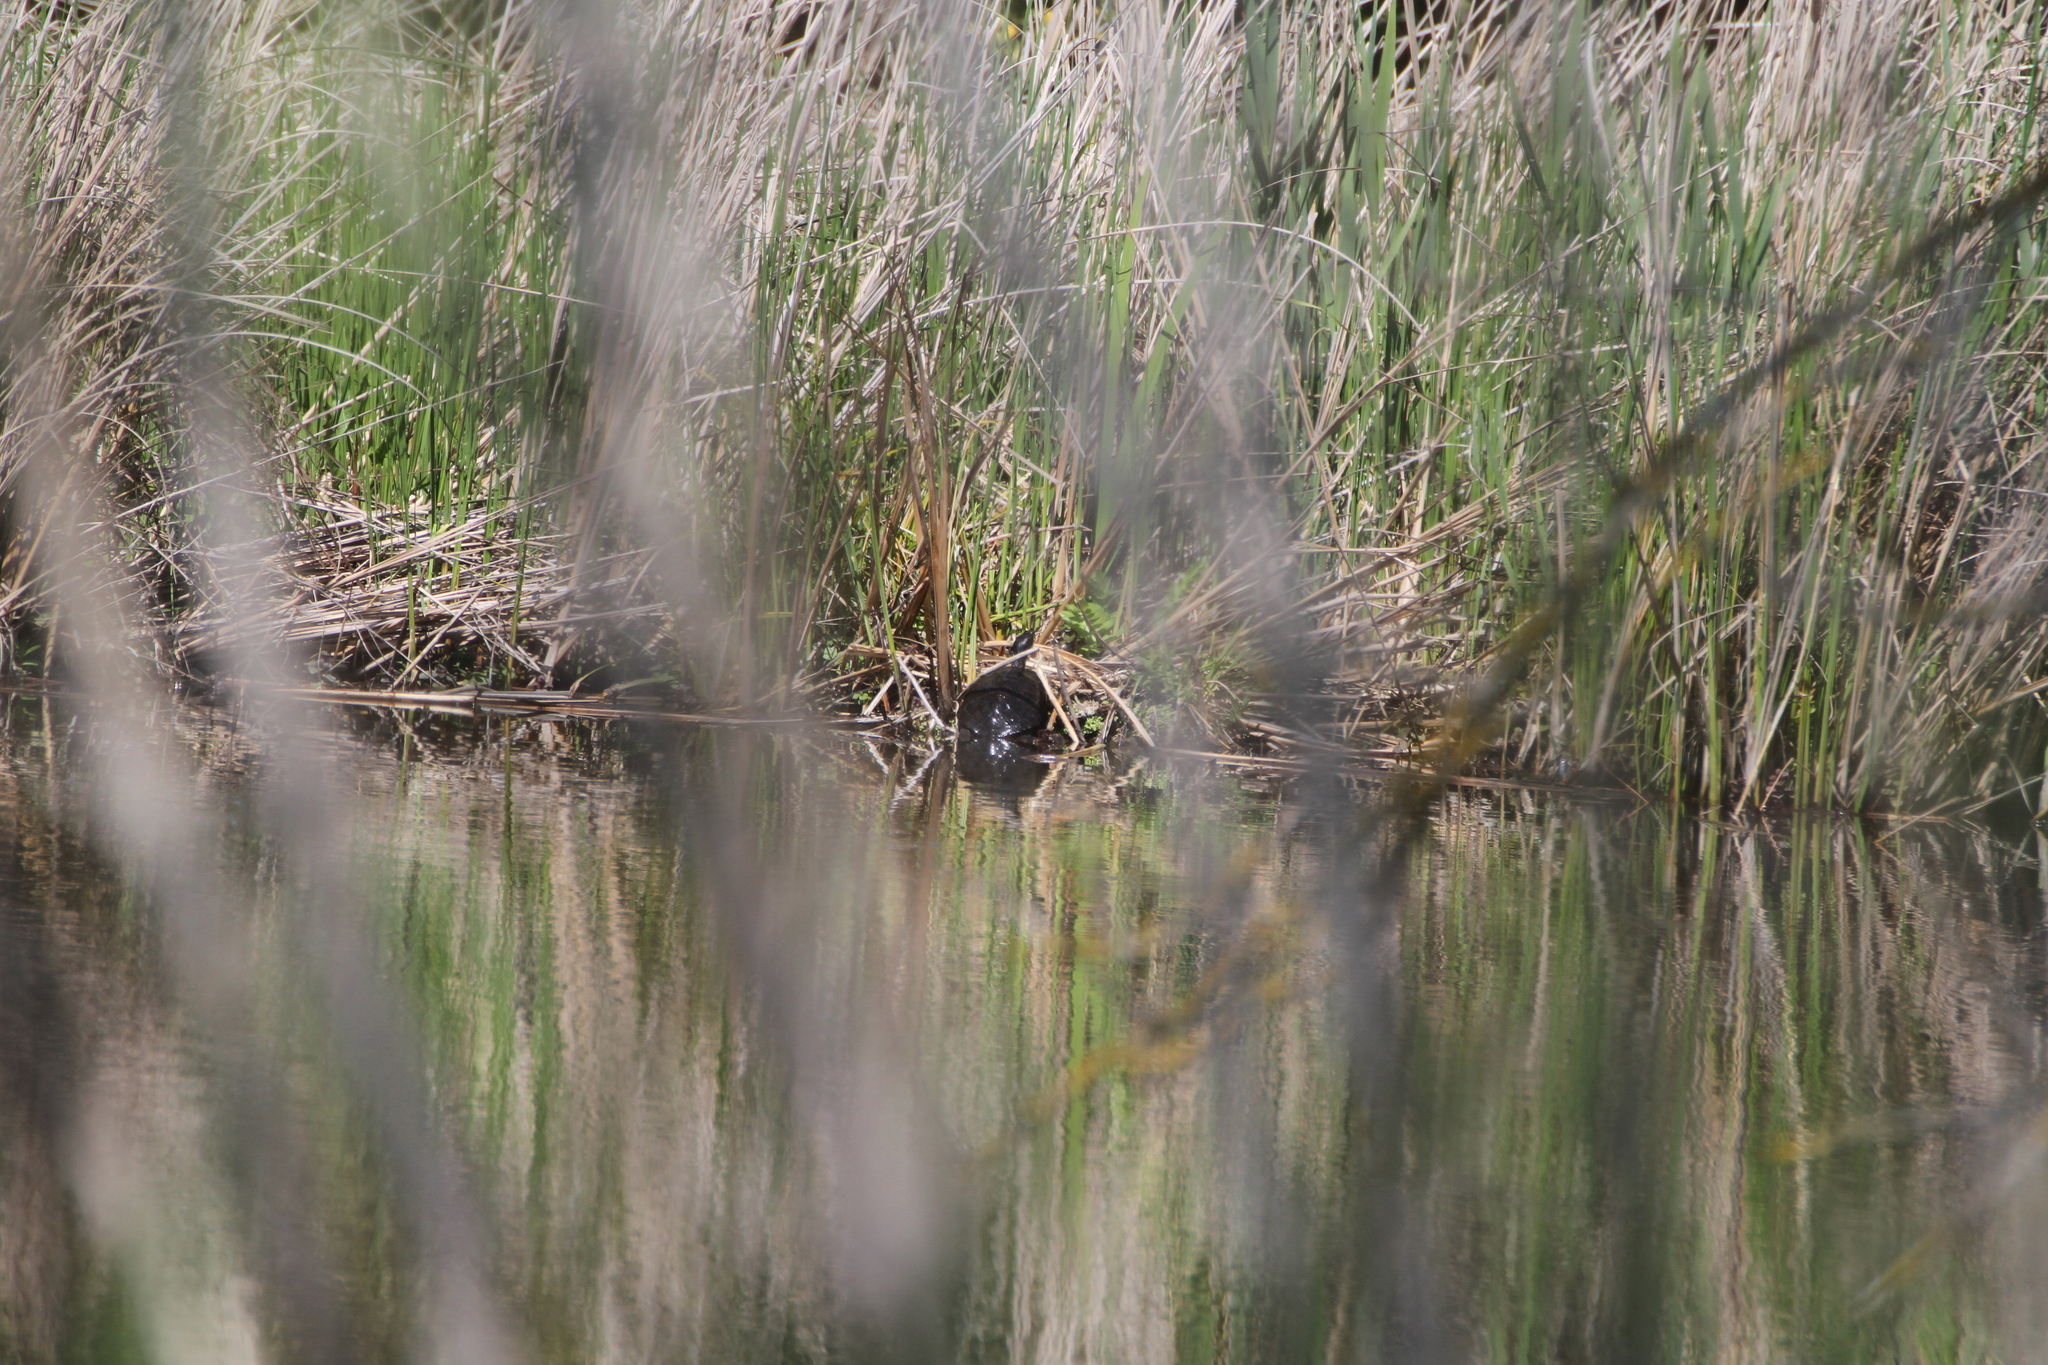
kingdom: Animalia
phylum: Chordata
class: Testudines
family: Emydidae
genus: Trachemys
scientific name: Trachemys scripta
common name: Slider
